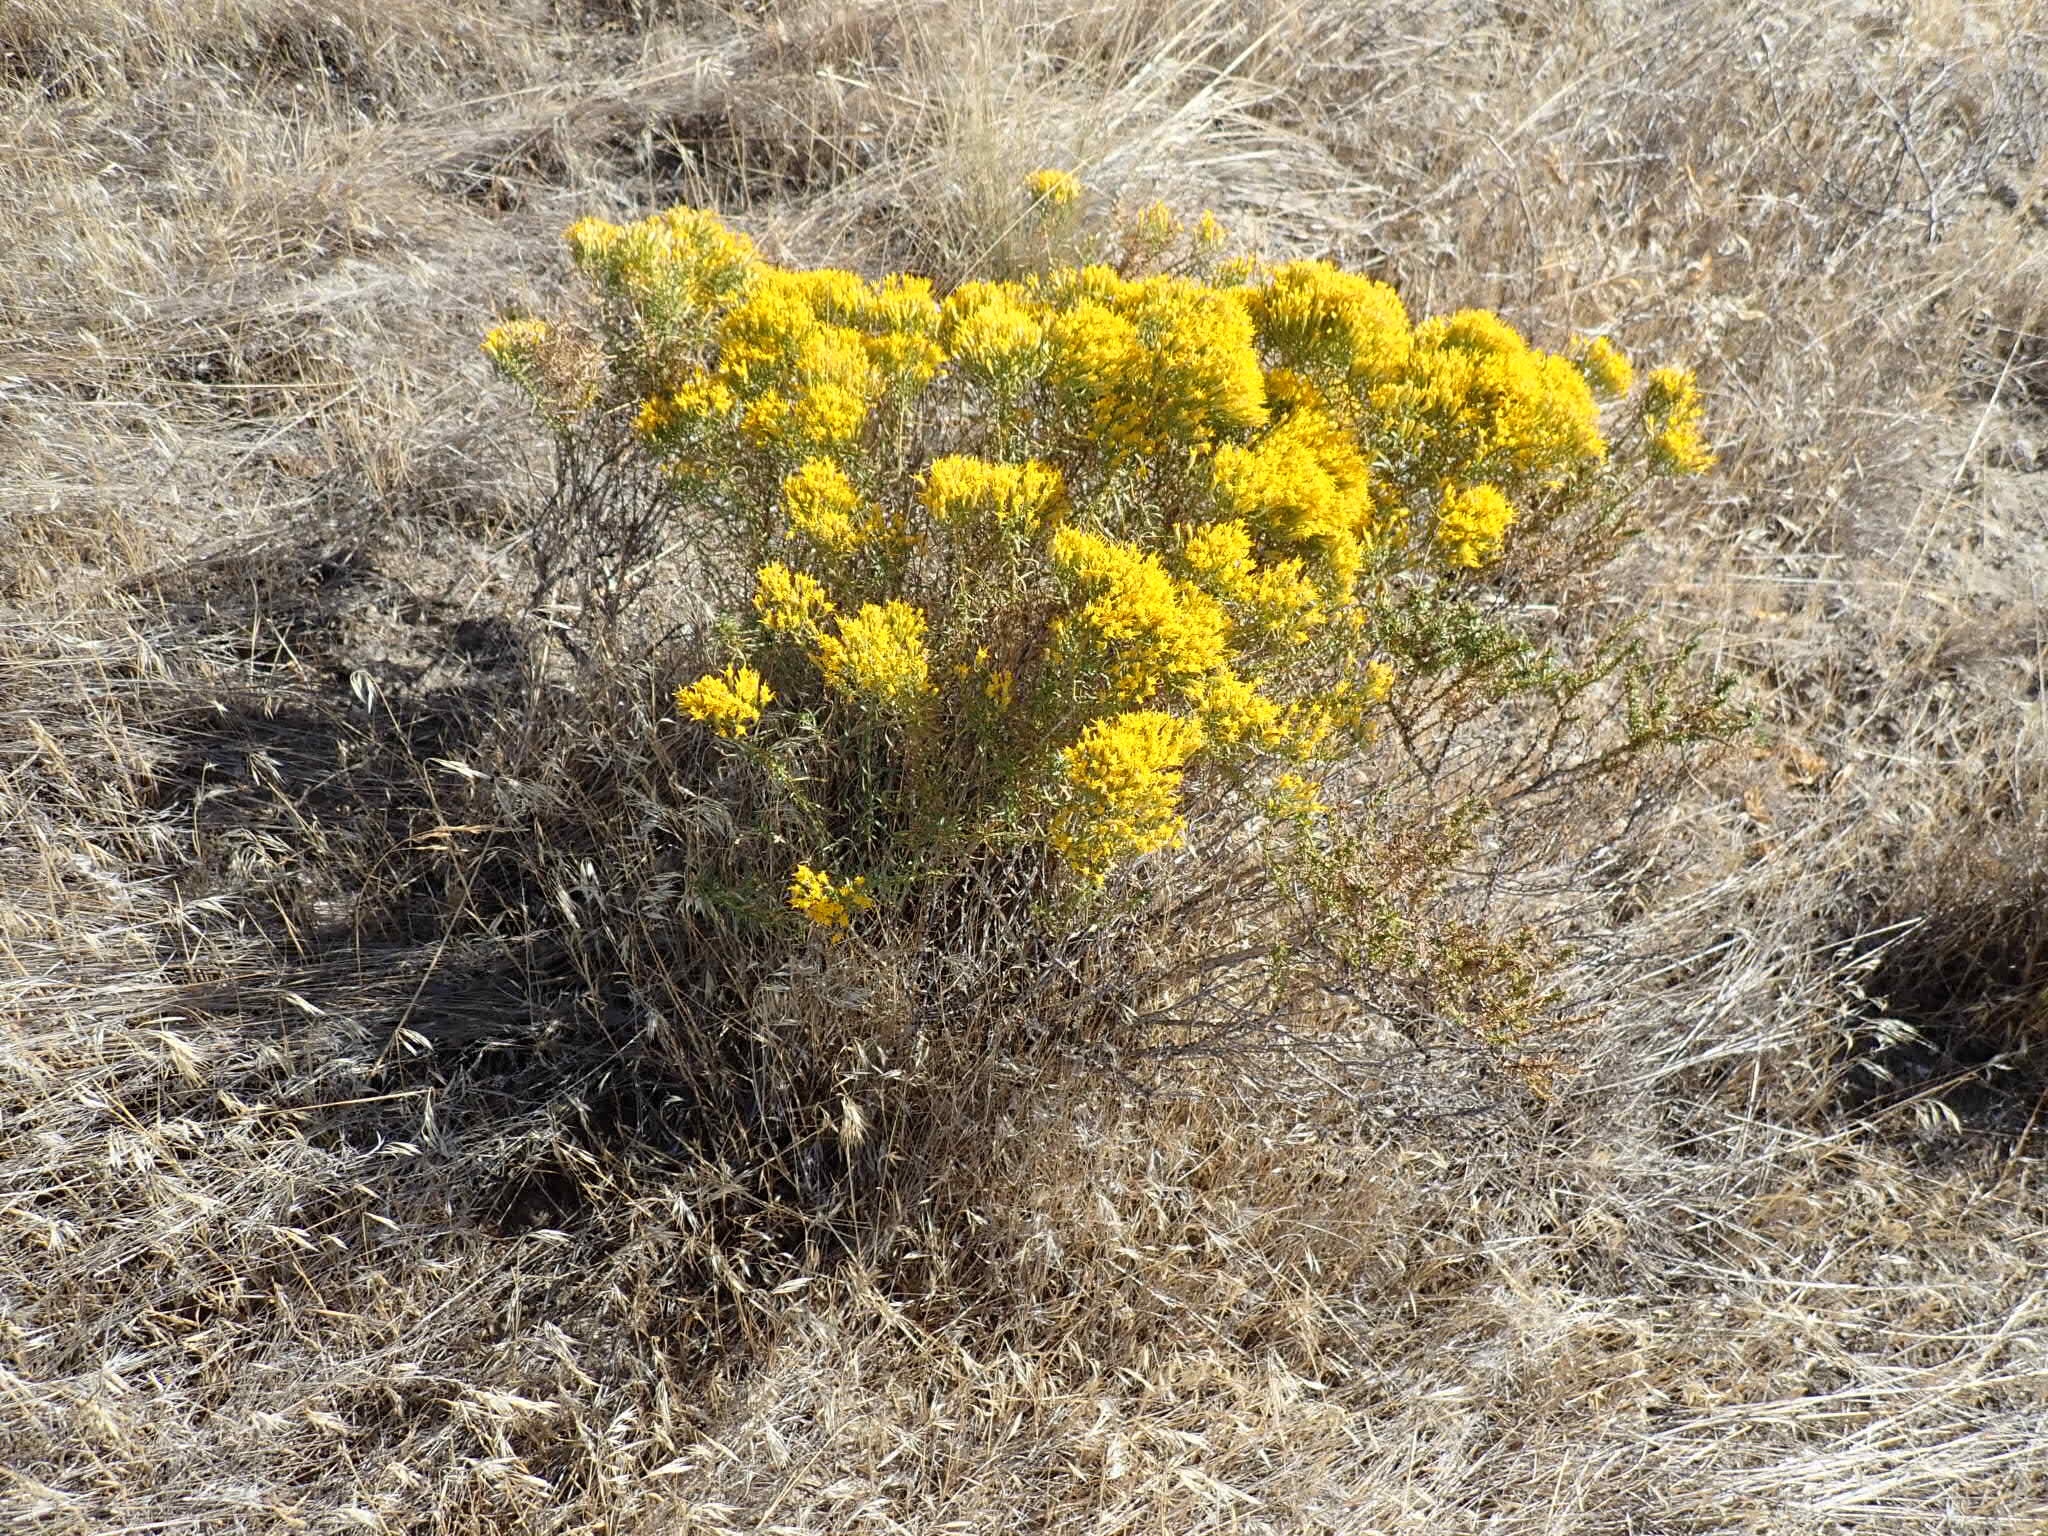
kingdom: Plantae
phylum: Tracheophyta
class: Magnoliopsida
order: Asterales
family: Asteraceae
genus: Ericameria
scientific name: Ericameria nauseosa
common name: Rubber rabbitbrush
